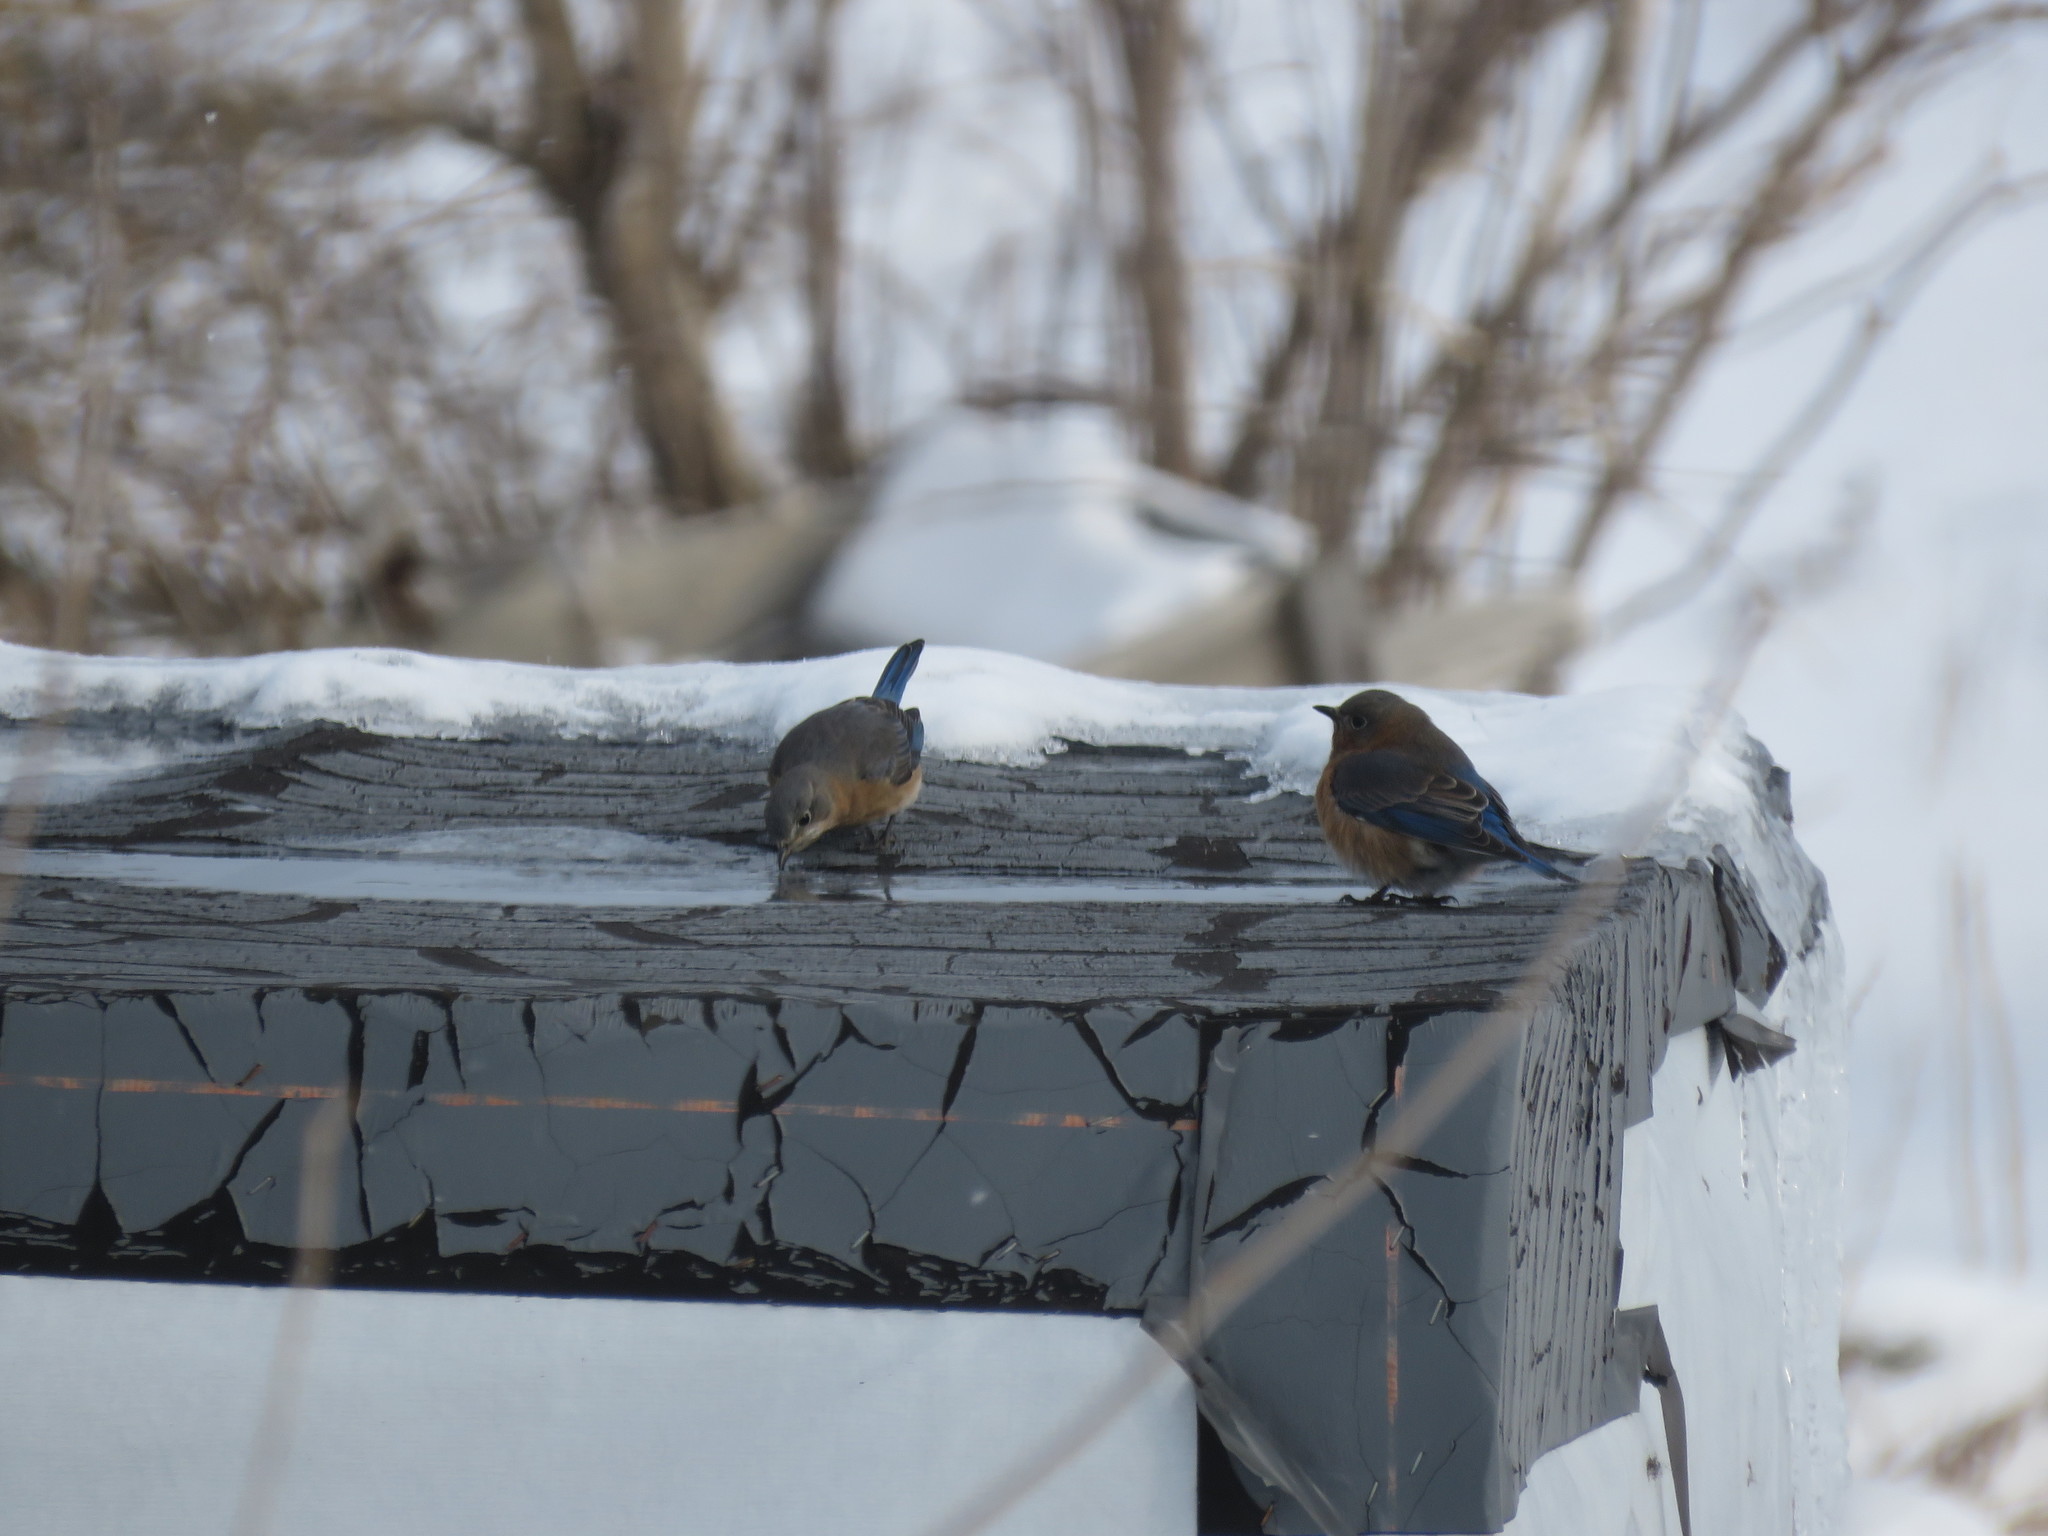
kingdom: Animalia
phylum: Chordata
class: Aves
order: Passeriformes
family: Turdidae
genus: Sialia
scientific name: Sialia sialis
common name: Eastern bluebird
